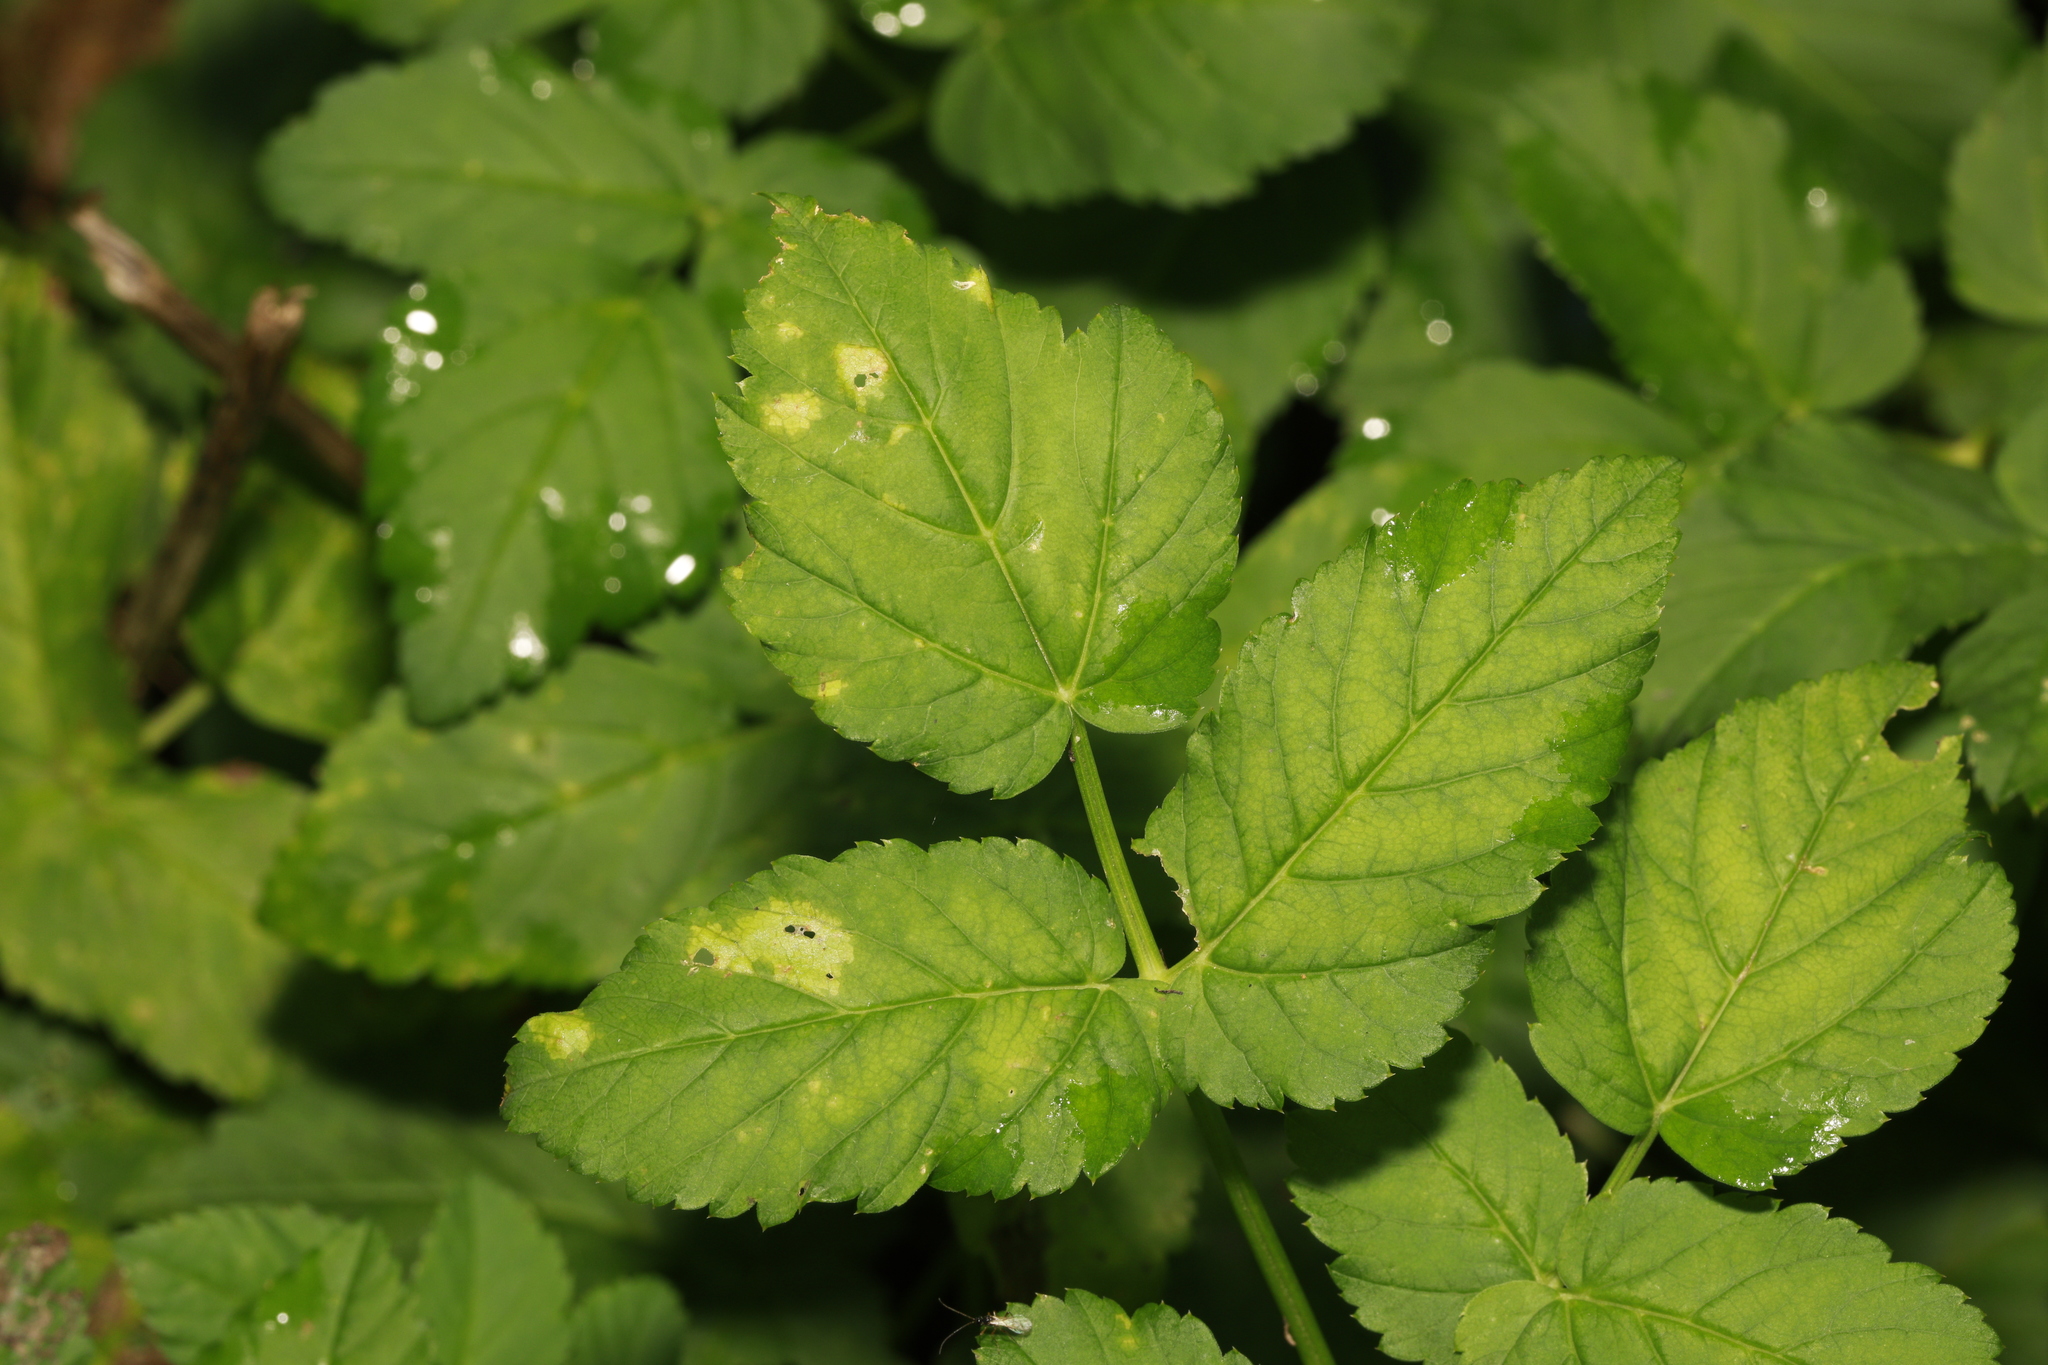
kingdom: Plantae
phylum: Tracheophyta
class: Magnoliopsida
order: Apiales
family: Apiaceae
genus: Aegopodium
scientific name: Aegopodium podagraria
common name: Ground-elder
